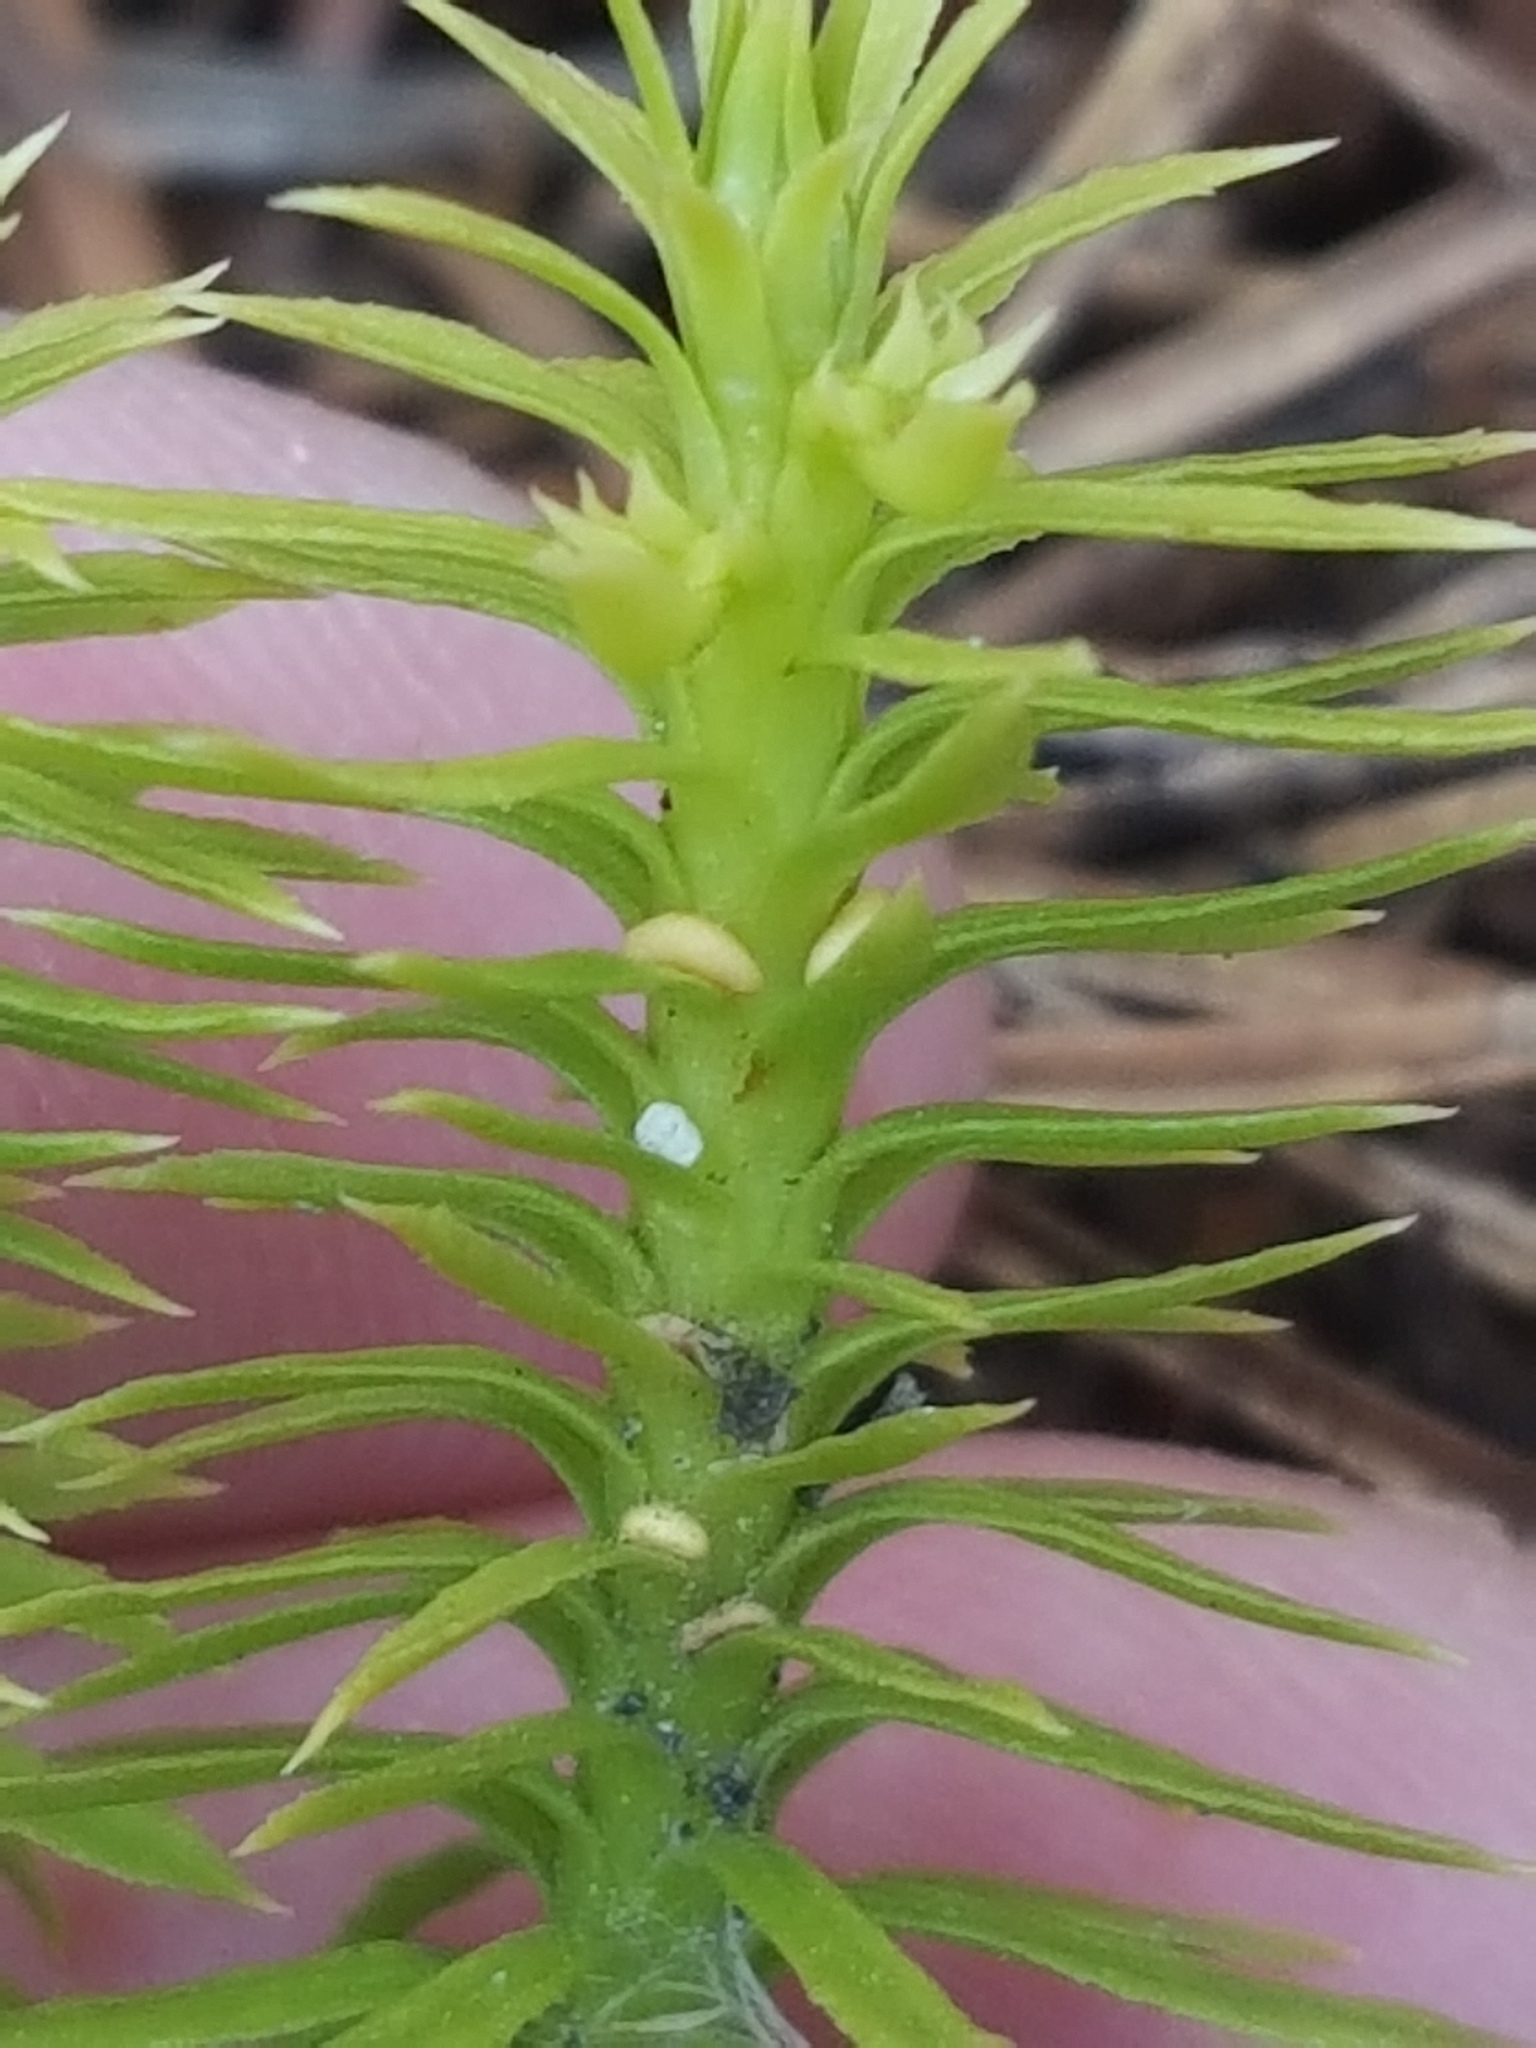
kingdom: Plantae
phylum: Tracheophyta
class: Lycopodiopsida
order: Lycopodiales
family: Lycopodiaceae
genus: Huperzia
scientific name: Huperzia lucidula
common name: Shining clubmoss
